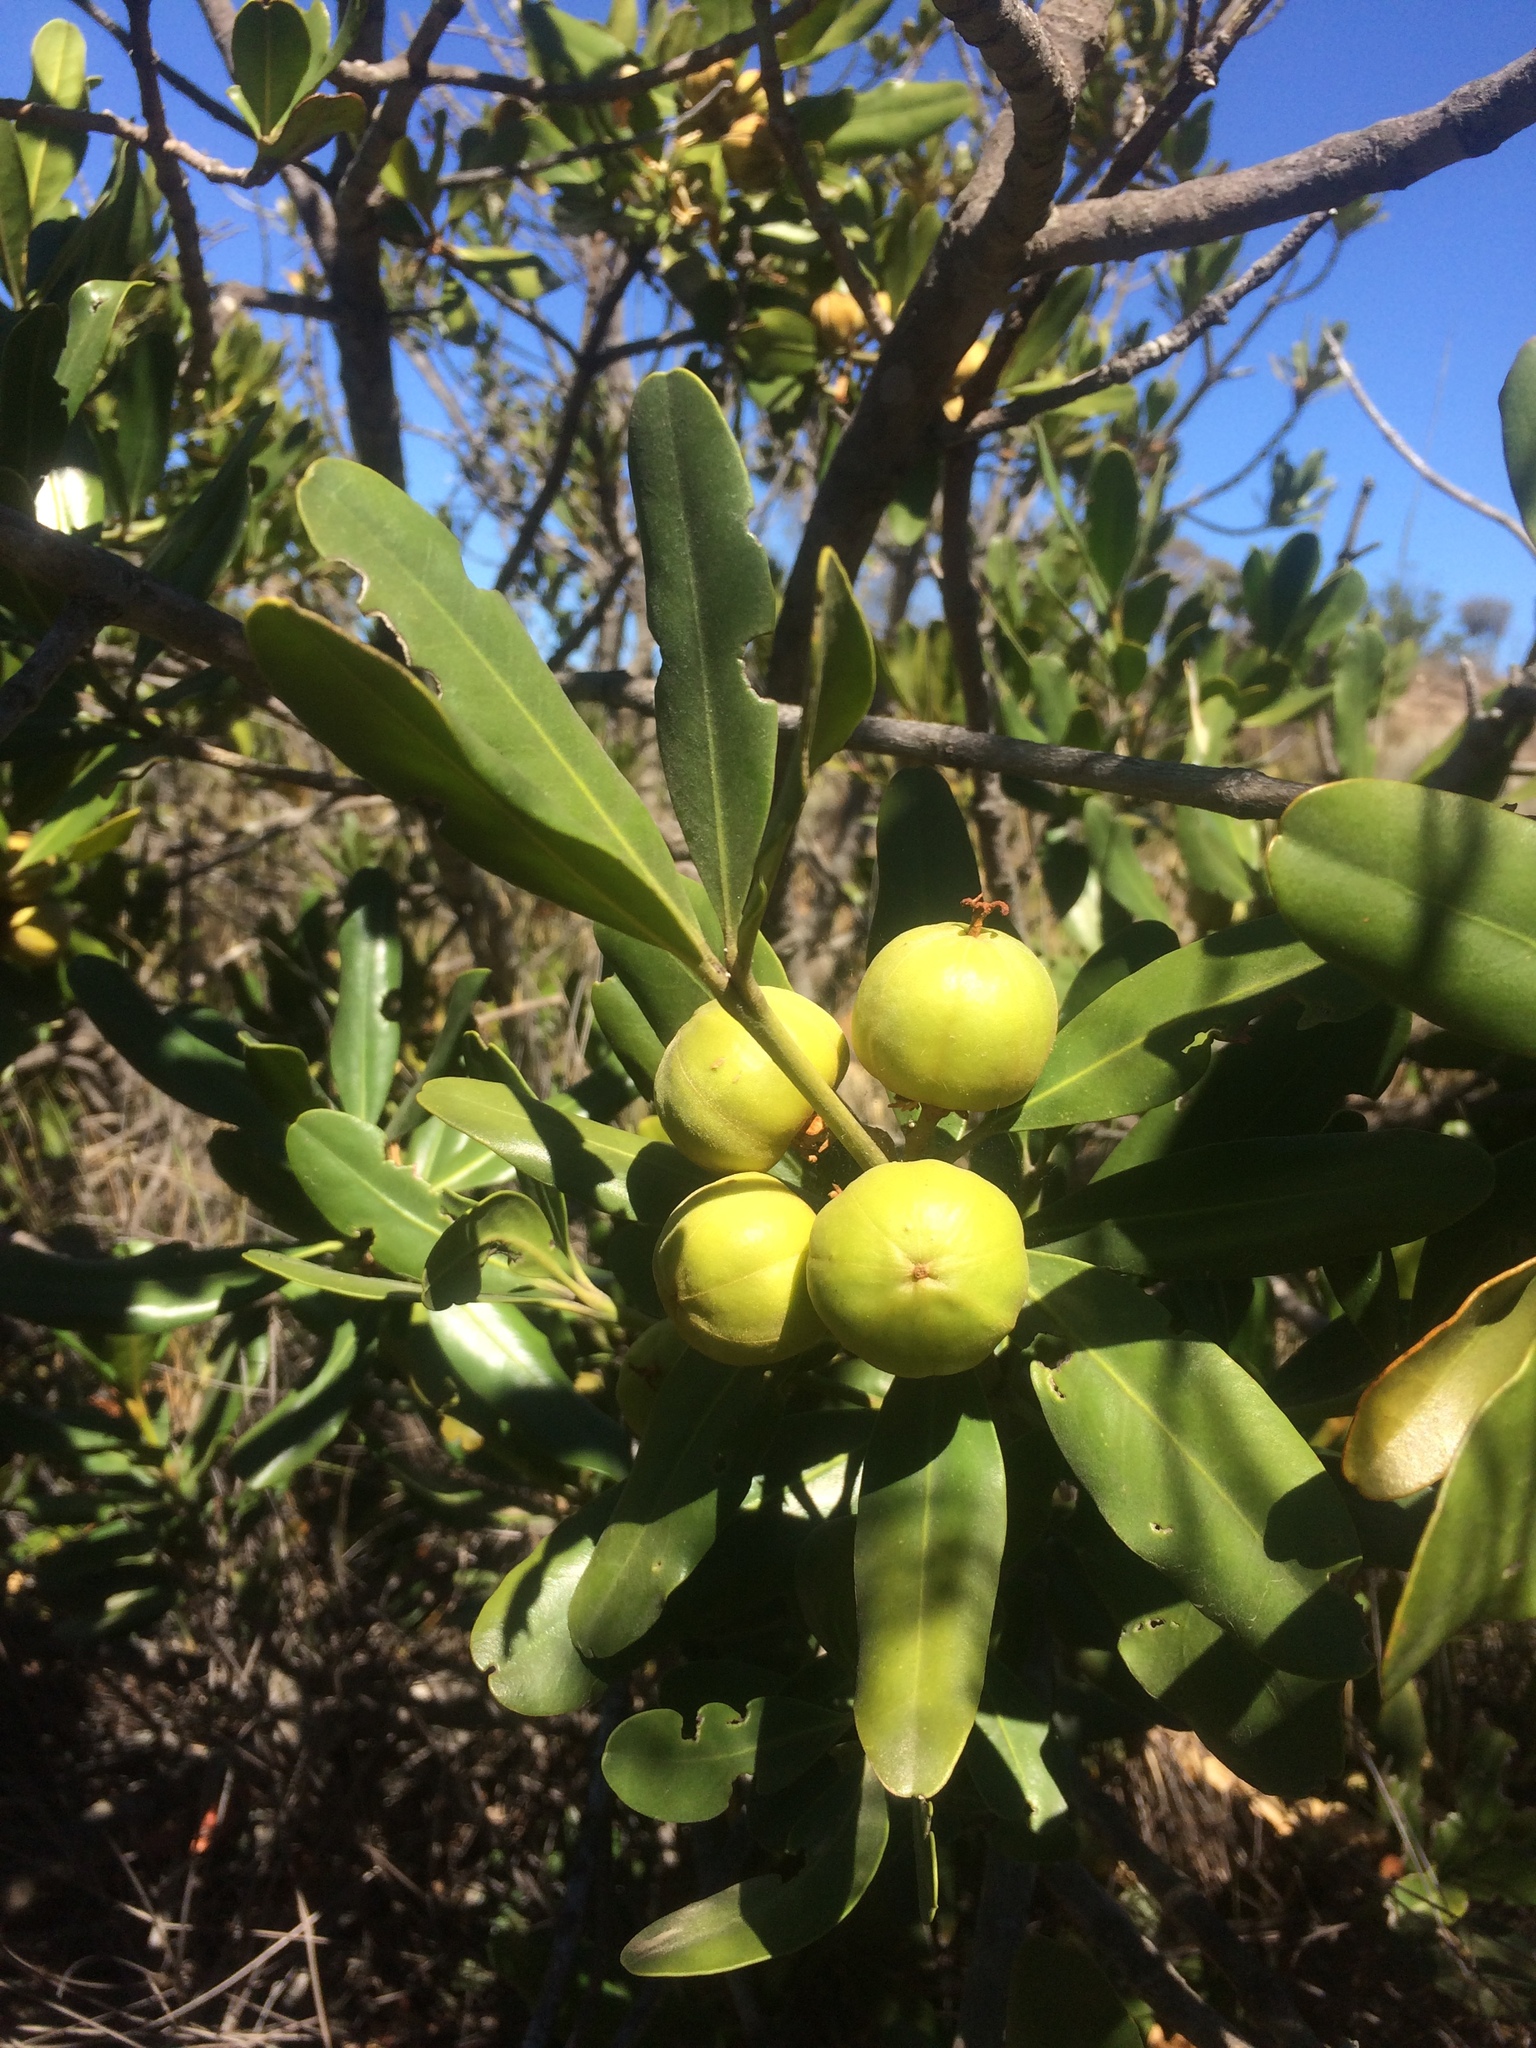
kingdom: Plantae
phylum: Tracheophyta
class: Magnoliopsida
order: Malpighiales
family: Picrodendraceae
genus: Hyaenanche
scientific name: Hyaenanche globosa
